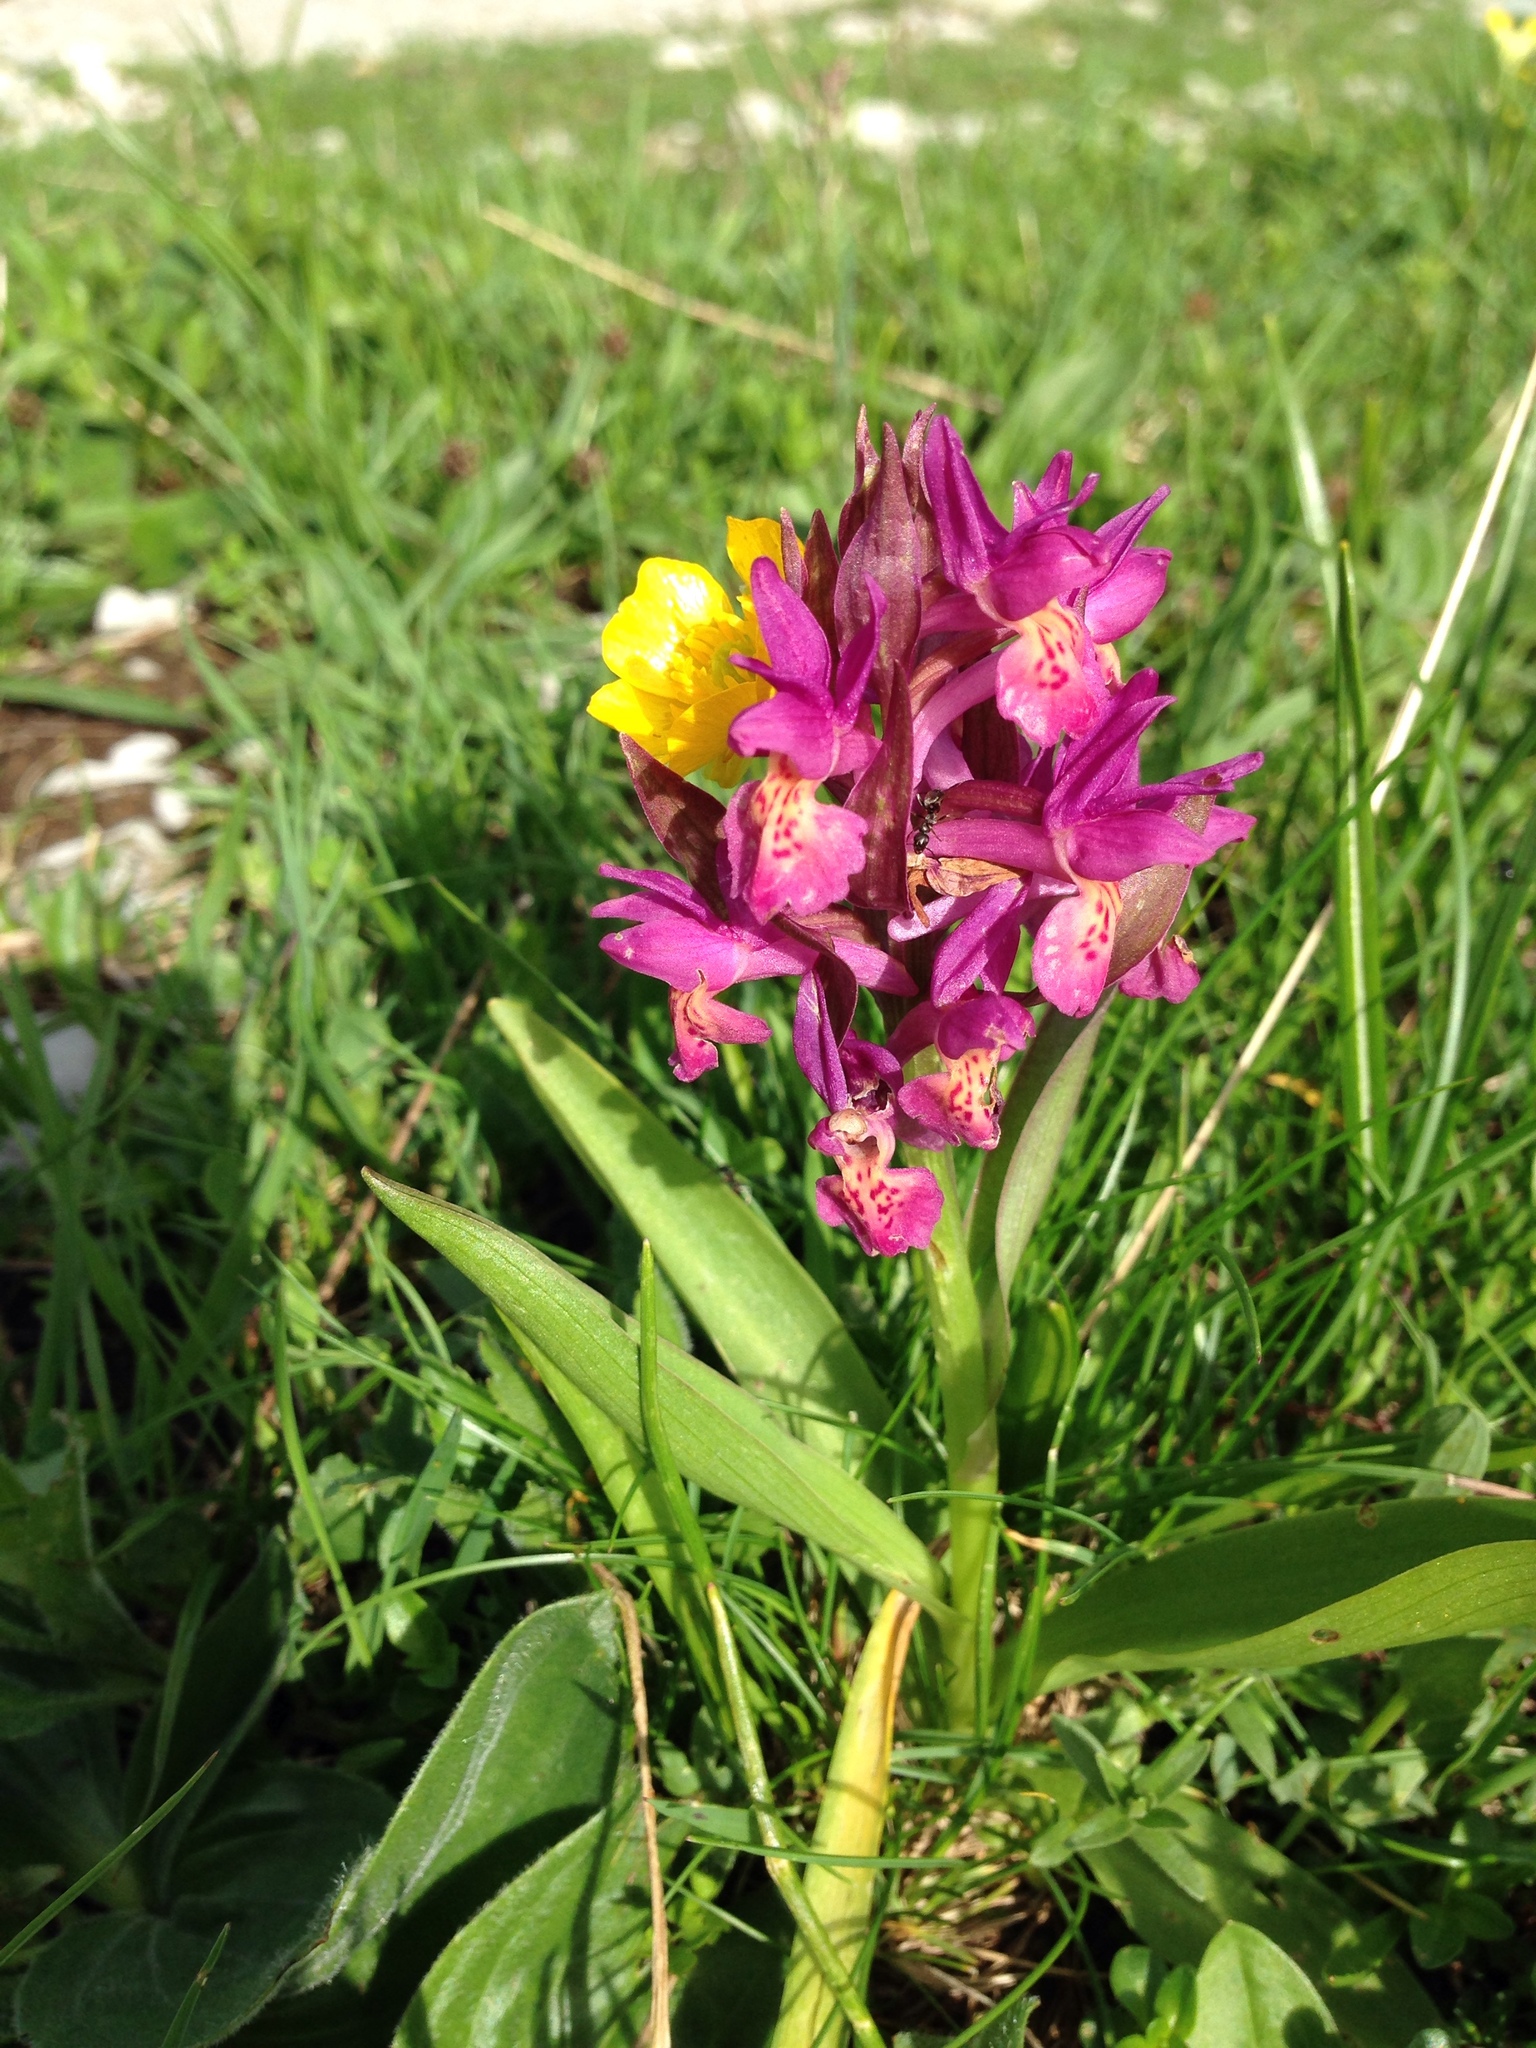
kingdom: Plantae
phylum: Tracheophyta
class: Liliopsida
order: Asparagales
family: Orchidaceae
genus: Dactylorhiza
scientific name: Dactylorhiza sambucina
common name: Elder-flowered orchid
